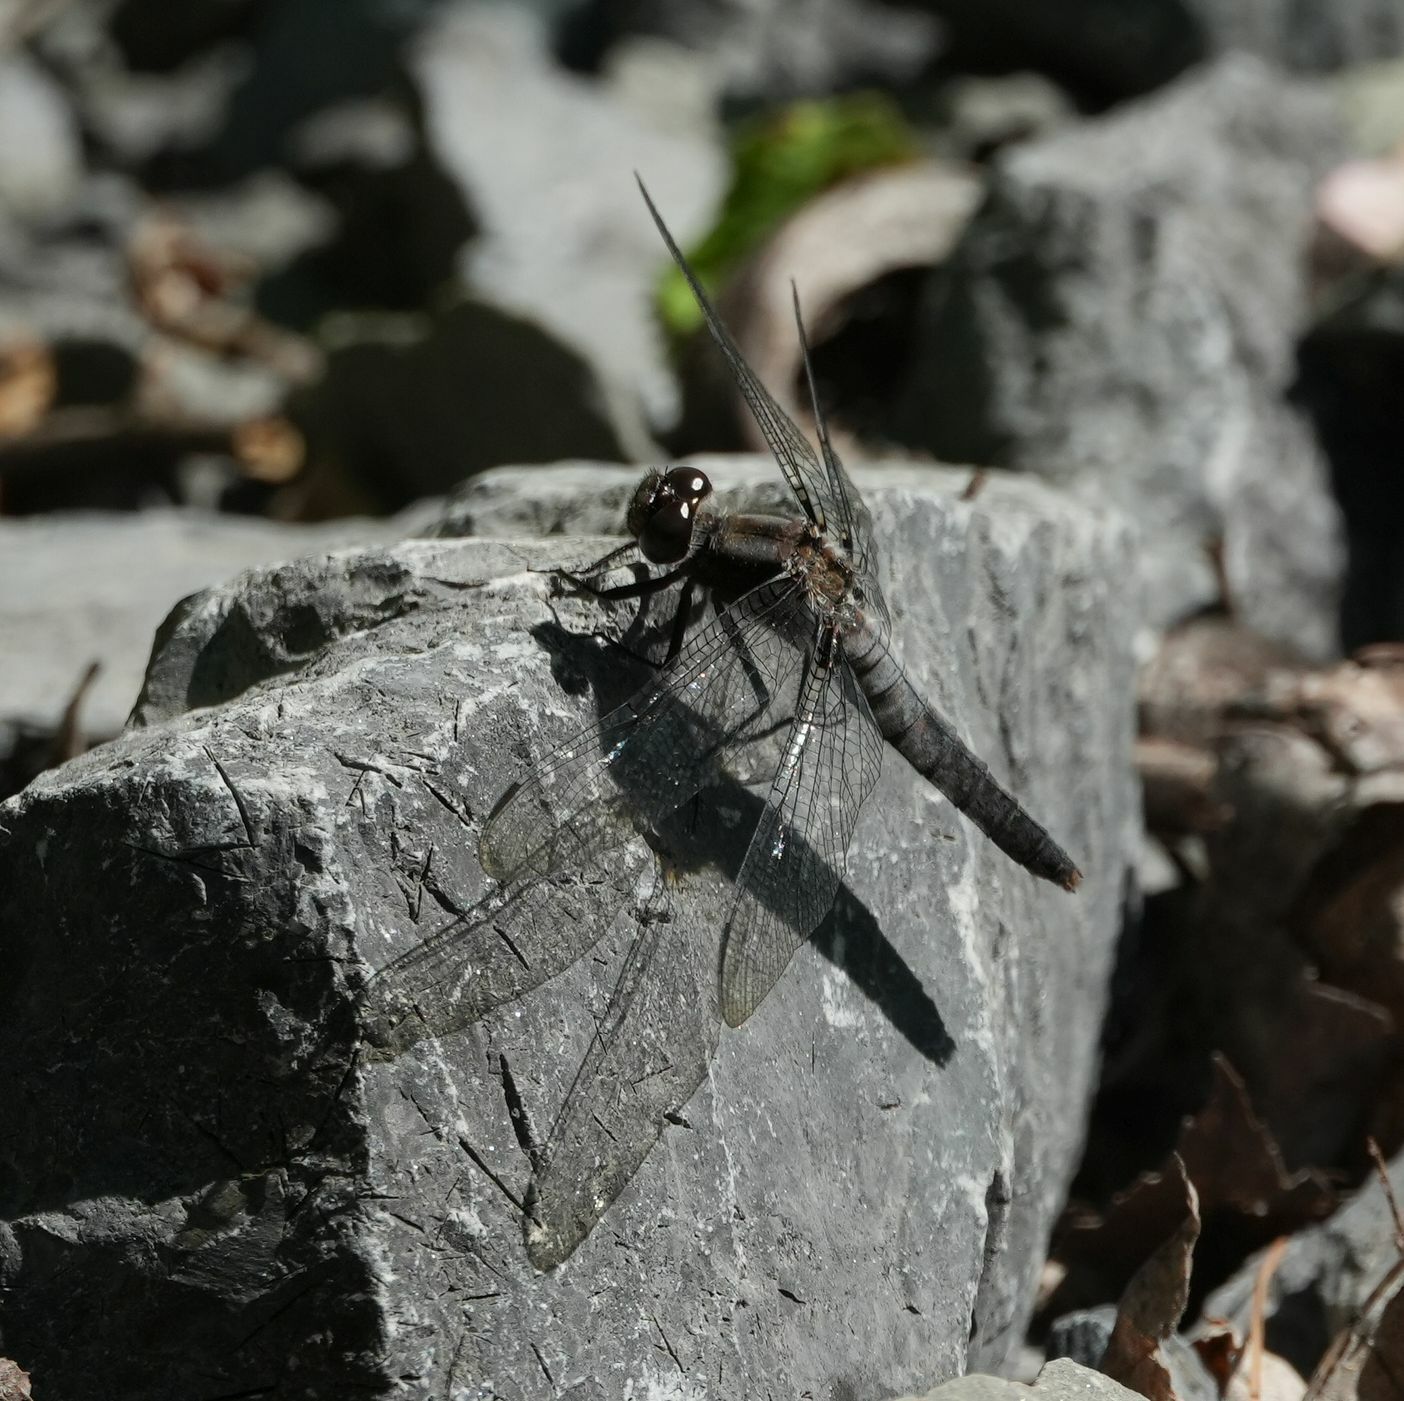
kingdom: Animalia
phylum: Arthropoda
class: Insecta
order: Odonata
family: Libellulidae
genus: Ladona
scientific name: Ladona julia
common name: Chalk-fronted corporal
